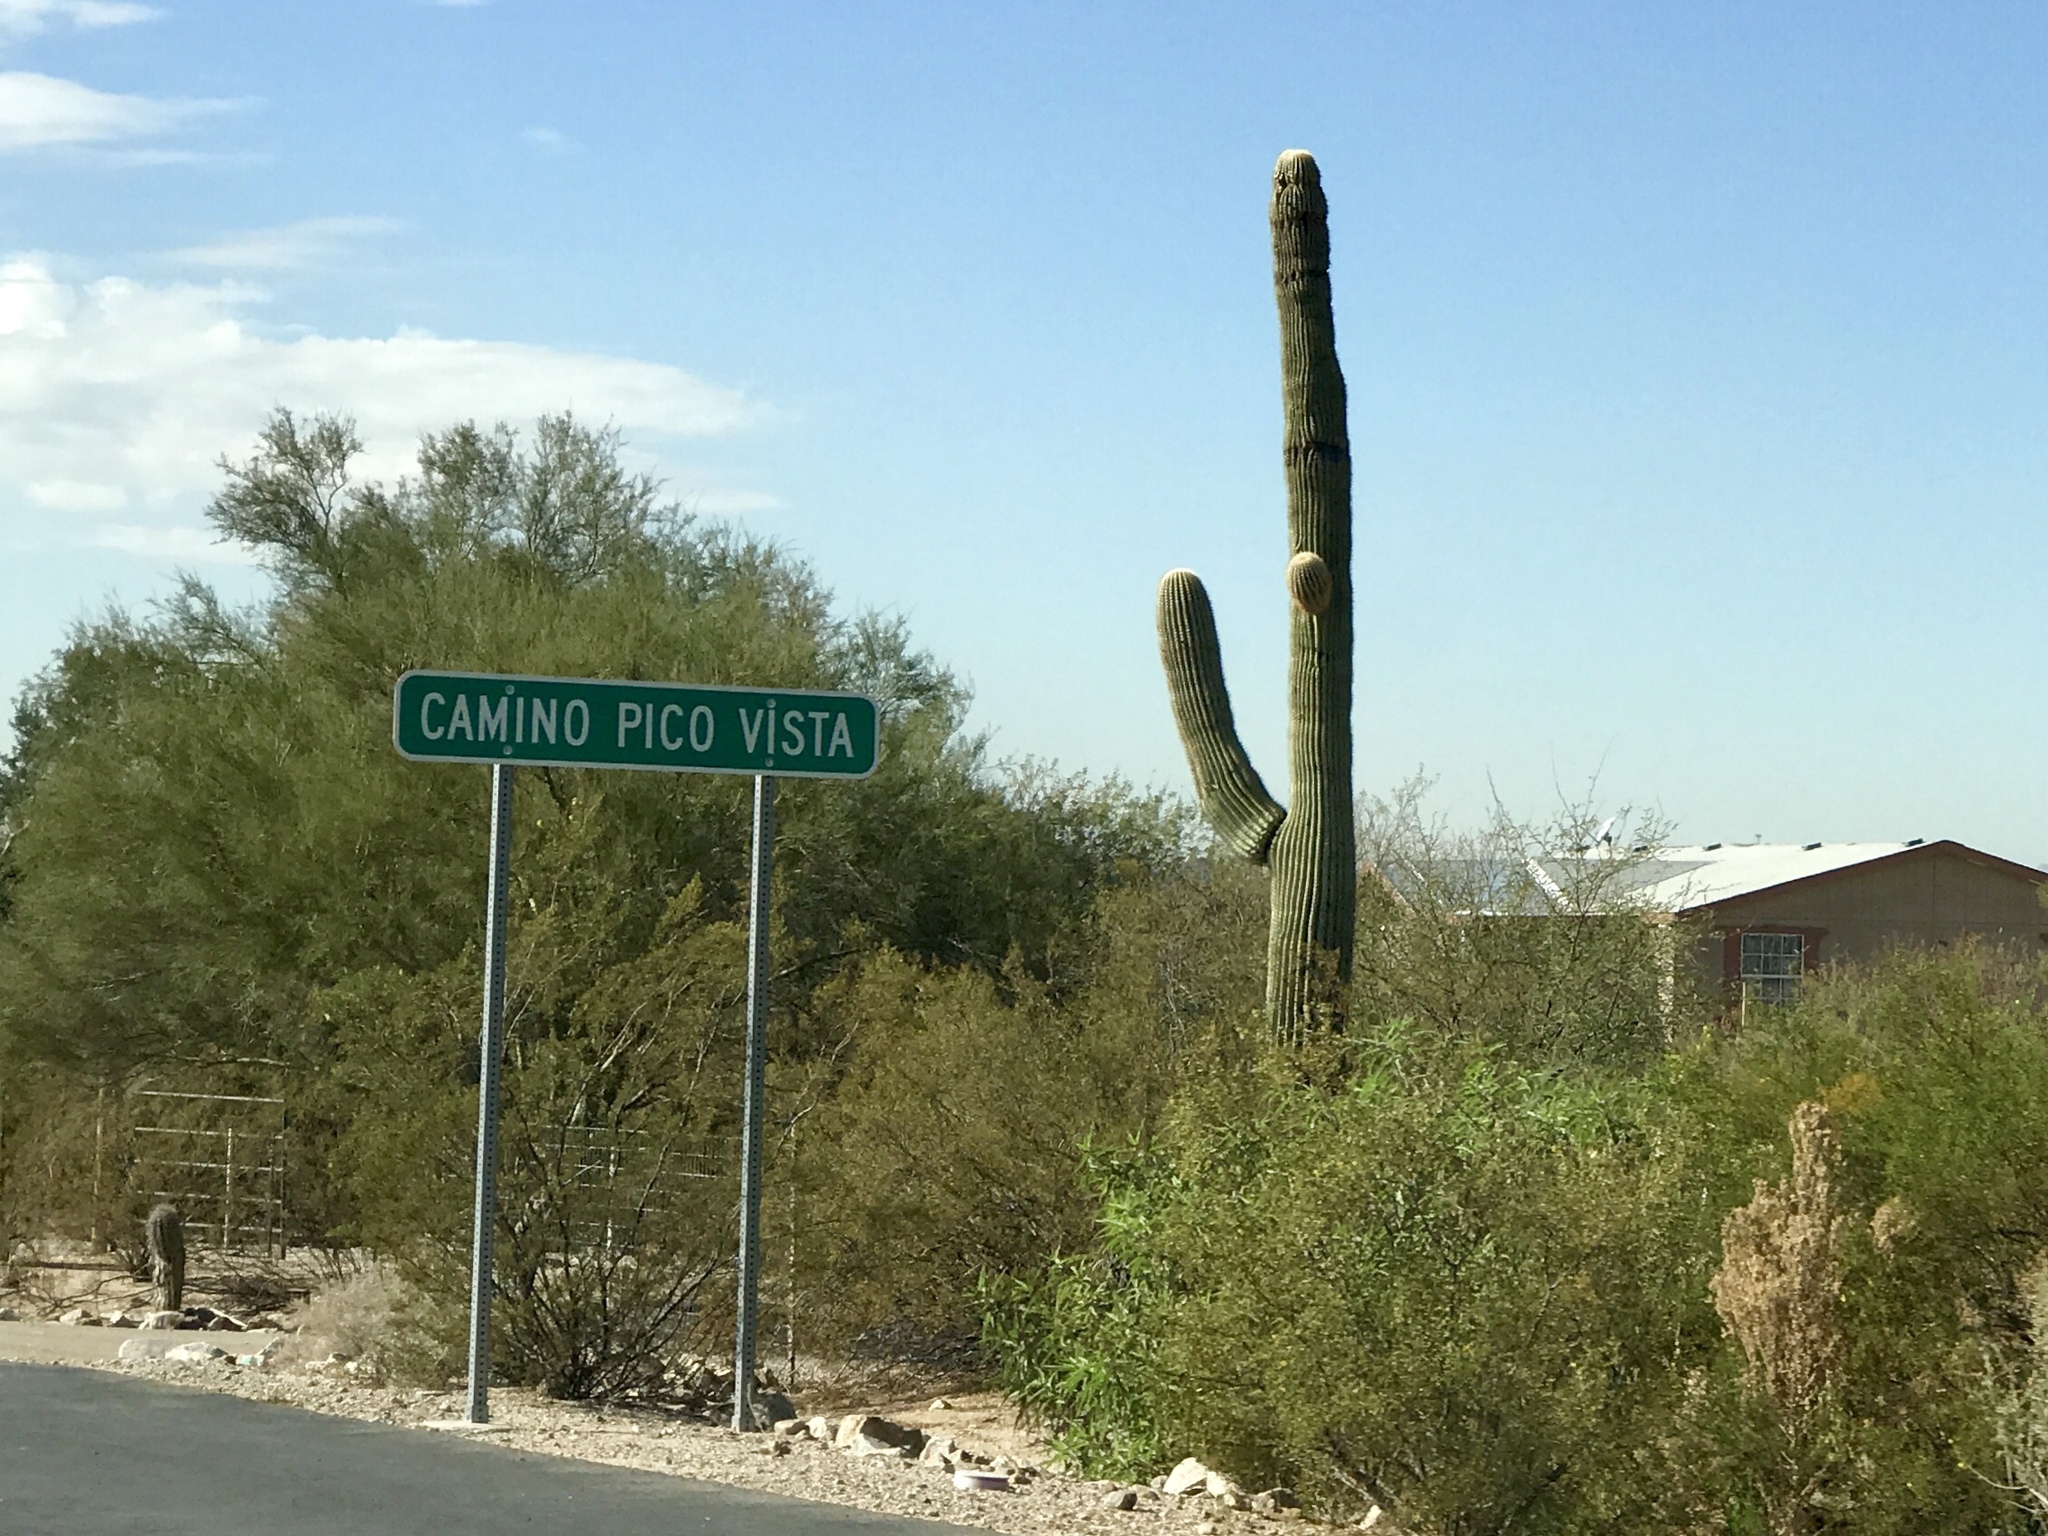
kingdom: Plantae
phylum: Tracheophyta
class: Magnoliopsida
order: Caryophyllales
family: Cactaceae
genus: Carnegiea
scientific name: Carnegiea gigantea
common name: Saguaro
